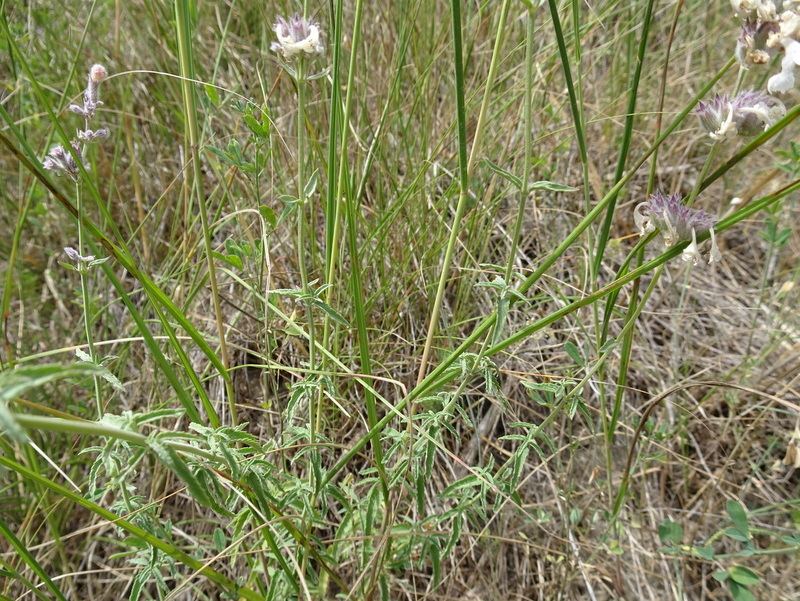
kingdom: Plantae
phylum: Tracheophyta
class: Magnoliopsida
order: Lamiales
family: Lamiaceae
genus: Nepeta
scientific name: Nepeta nepetella
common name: Lesser catmint
